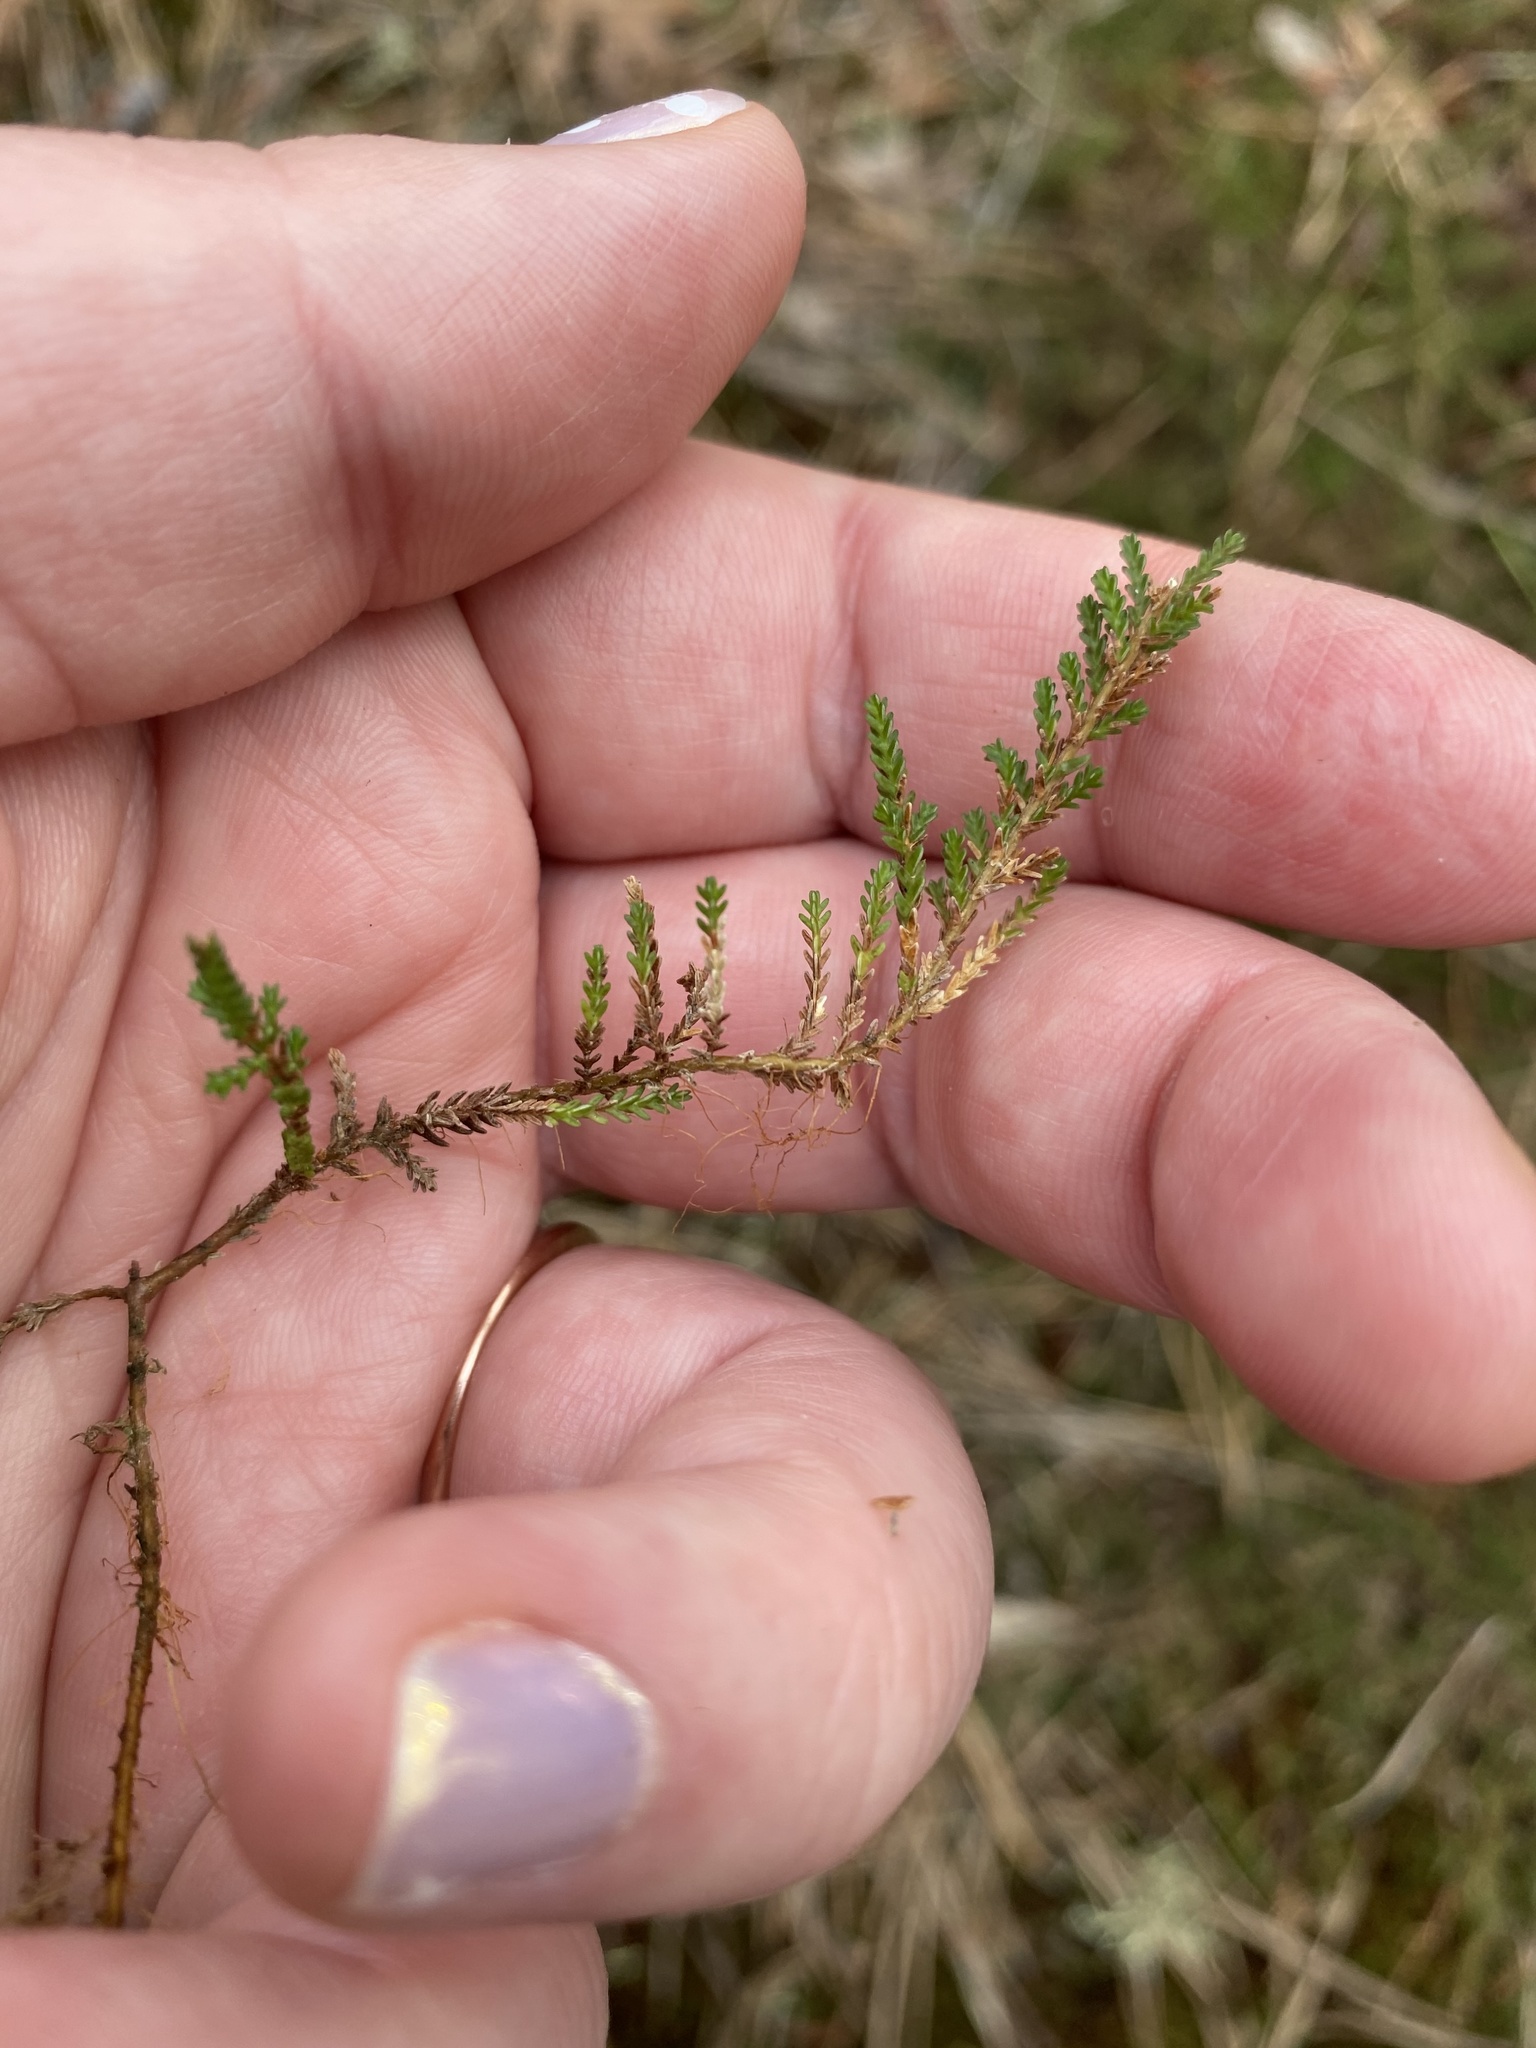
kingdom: Plantae
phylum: Tracheophyta
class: Magnoliopsida
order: Ericales
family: Ericaceae
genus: Calluna
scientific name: Calluna vulgaris
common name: Heather
